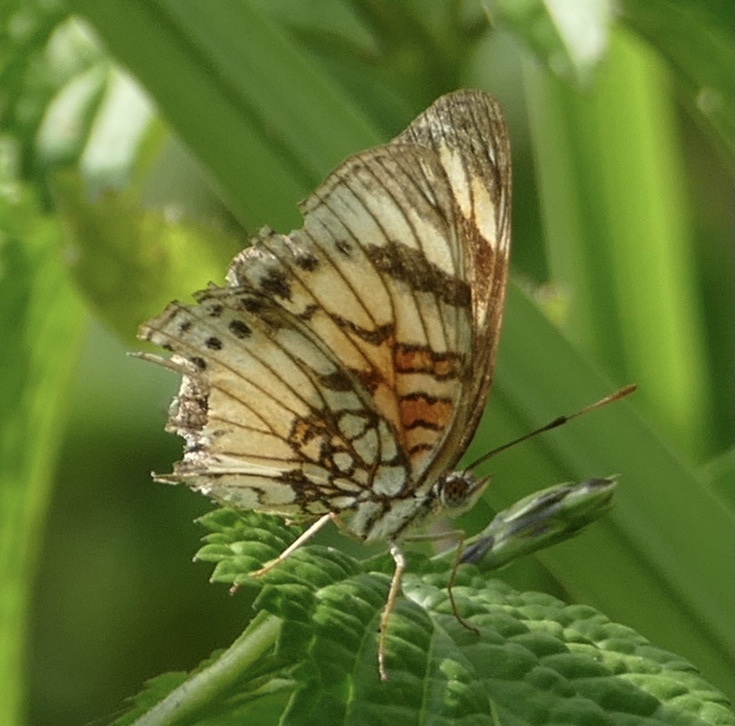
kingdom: Animalia
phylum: Arthropoda
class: Insecta
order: Lepidoptera
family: Nymphalidae
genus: Junonia
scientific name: Junonia sophia
